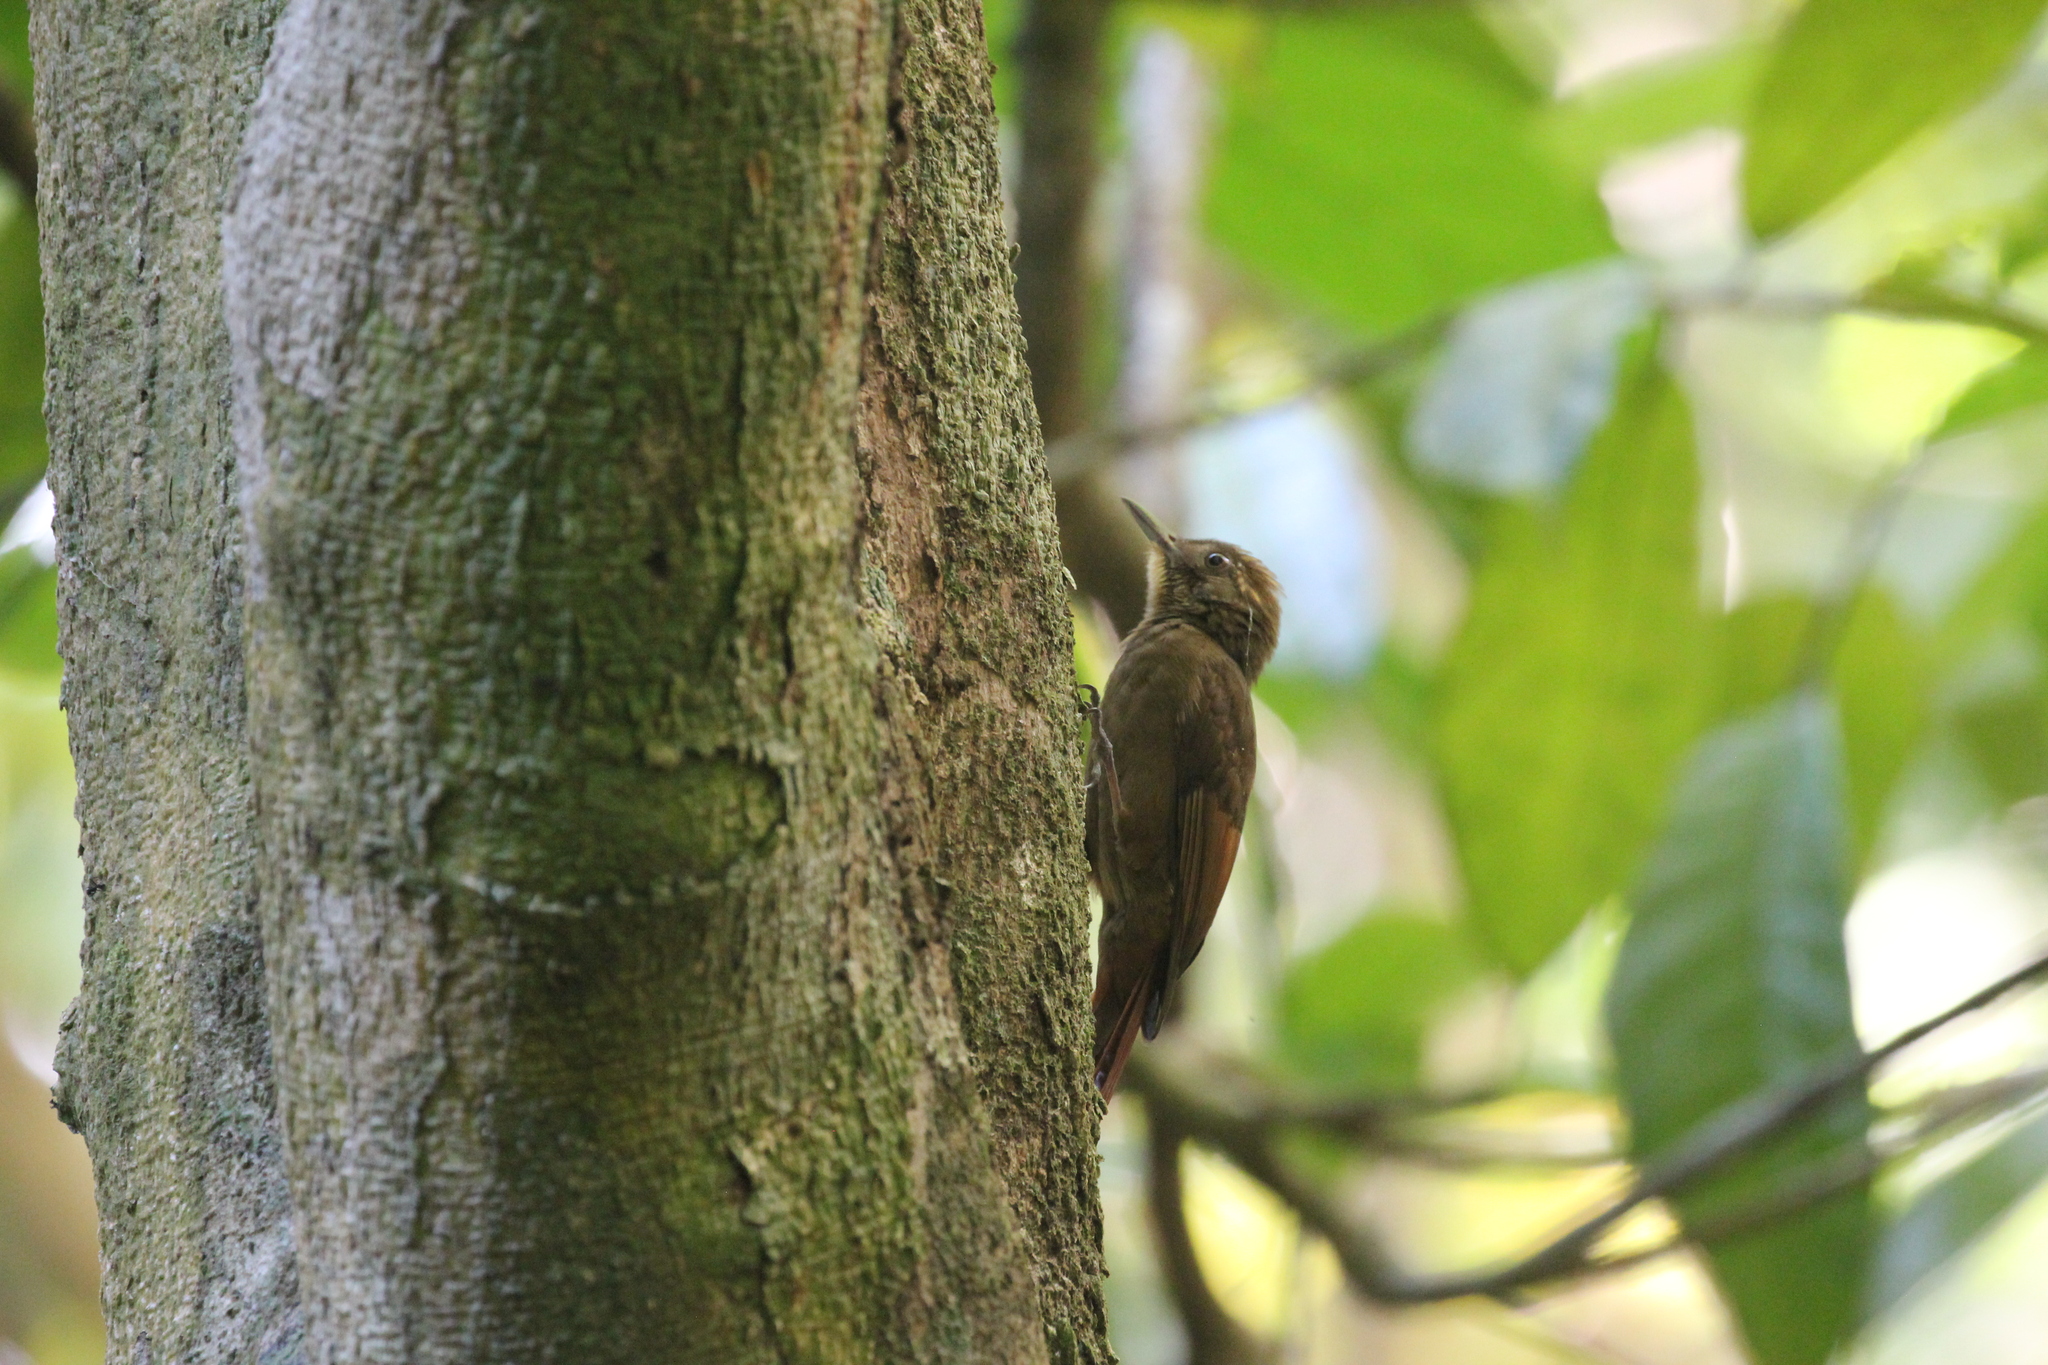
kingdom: Animalia
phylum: Chordata
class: Aves
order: Passeriformes
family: Furnariidae
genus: Dendrocincla
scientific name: Dendrocincla anabatina
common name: Tawny-winged woodcreeper
